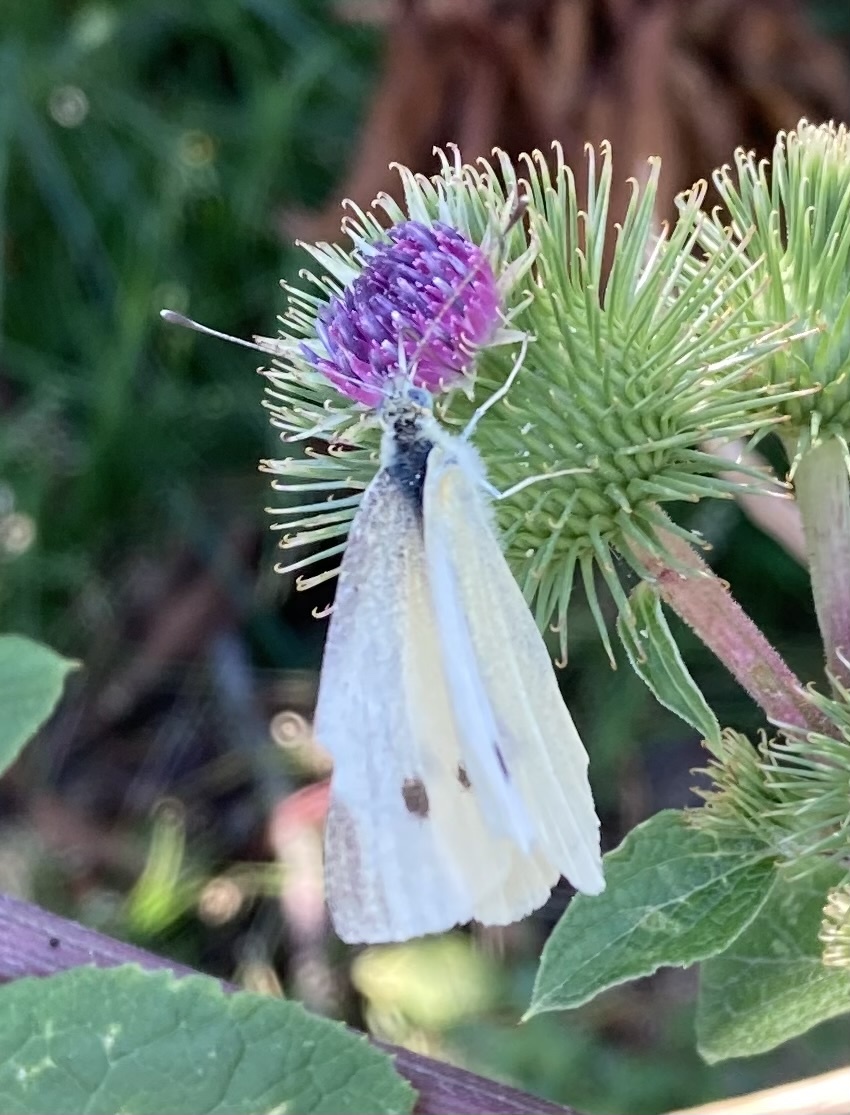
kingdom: Animalia
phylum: Arthropoda
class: Insecta
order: Lepidoptera
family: Pieridae
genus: Pieris
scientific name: Pieris rapae
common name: Small white
